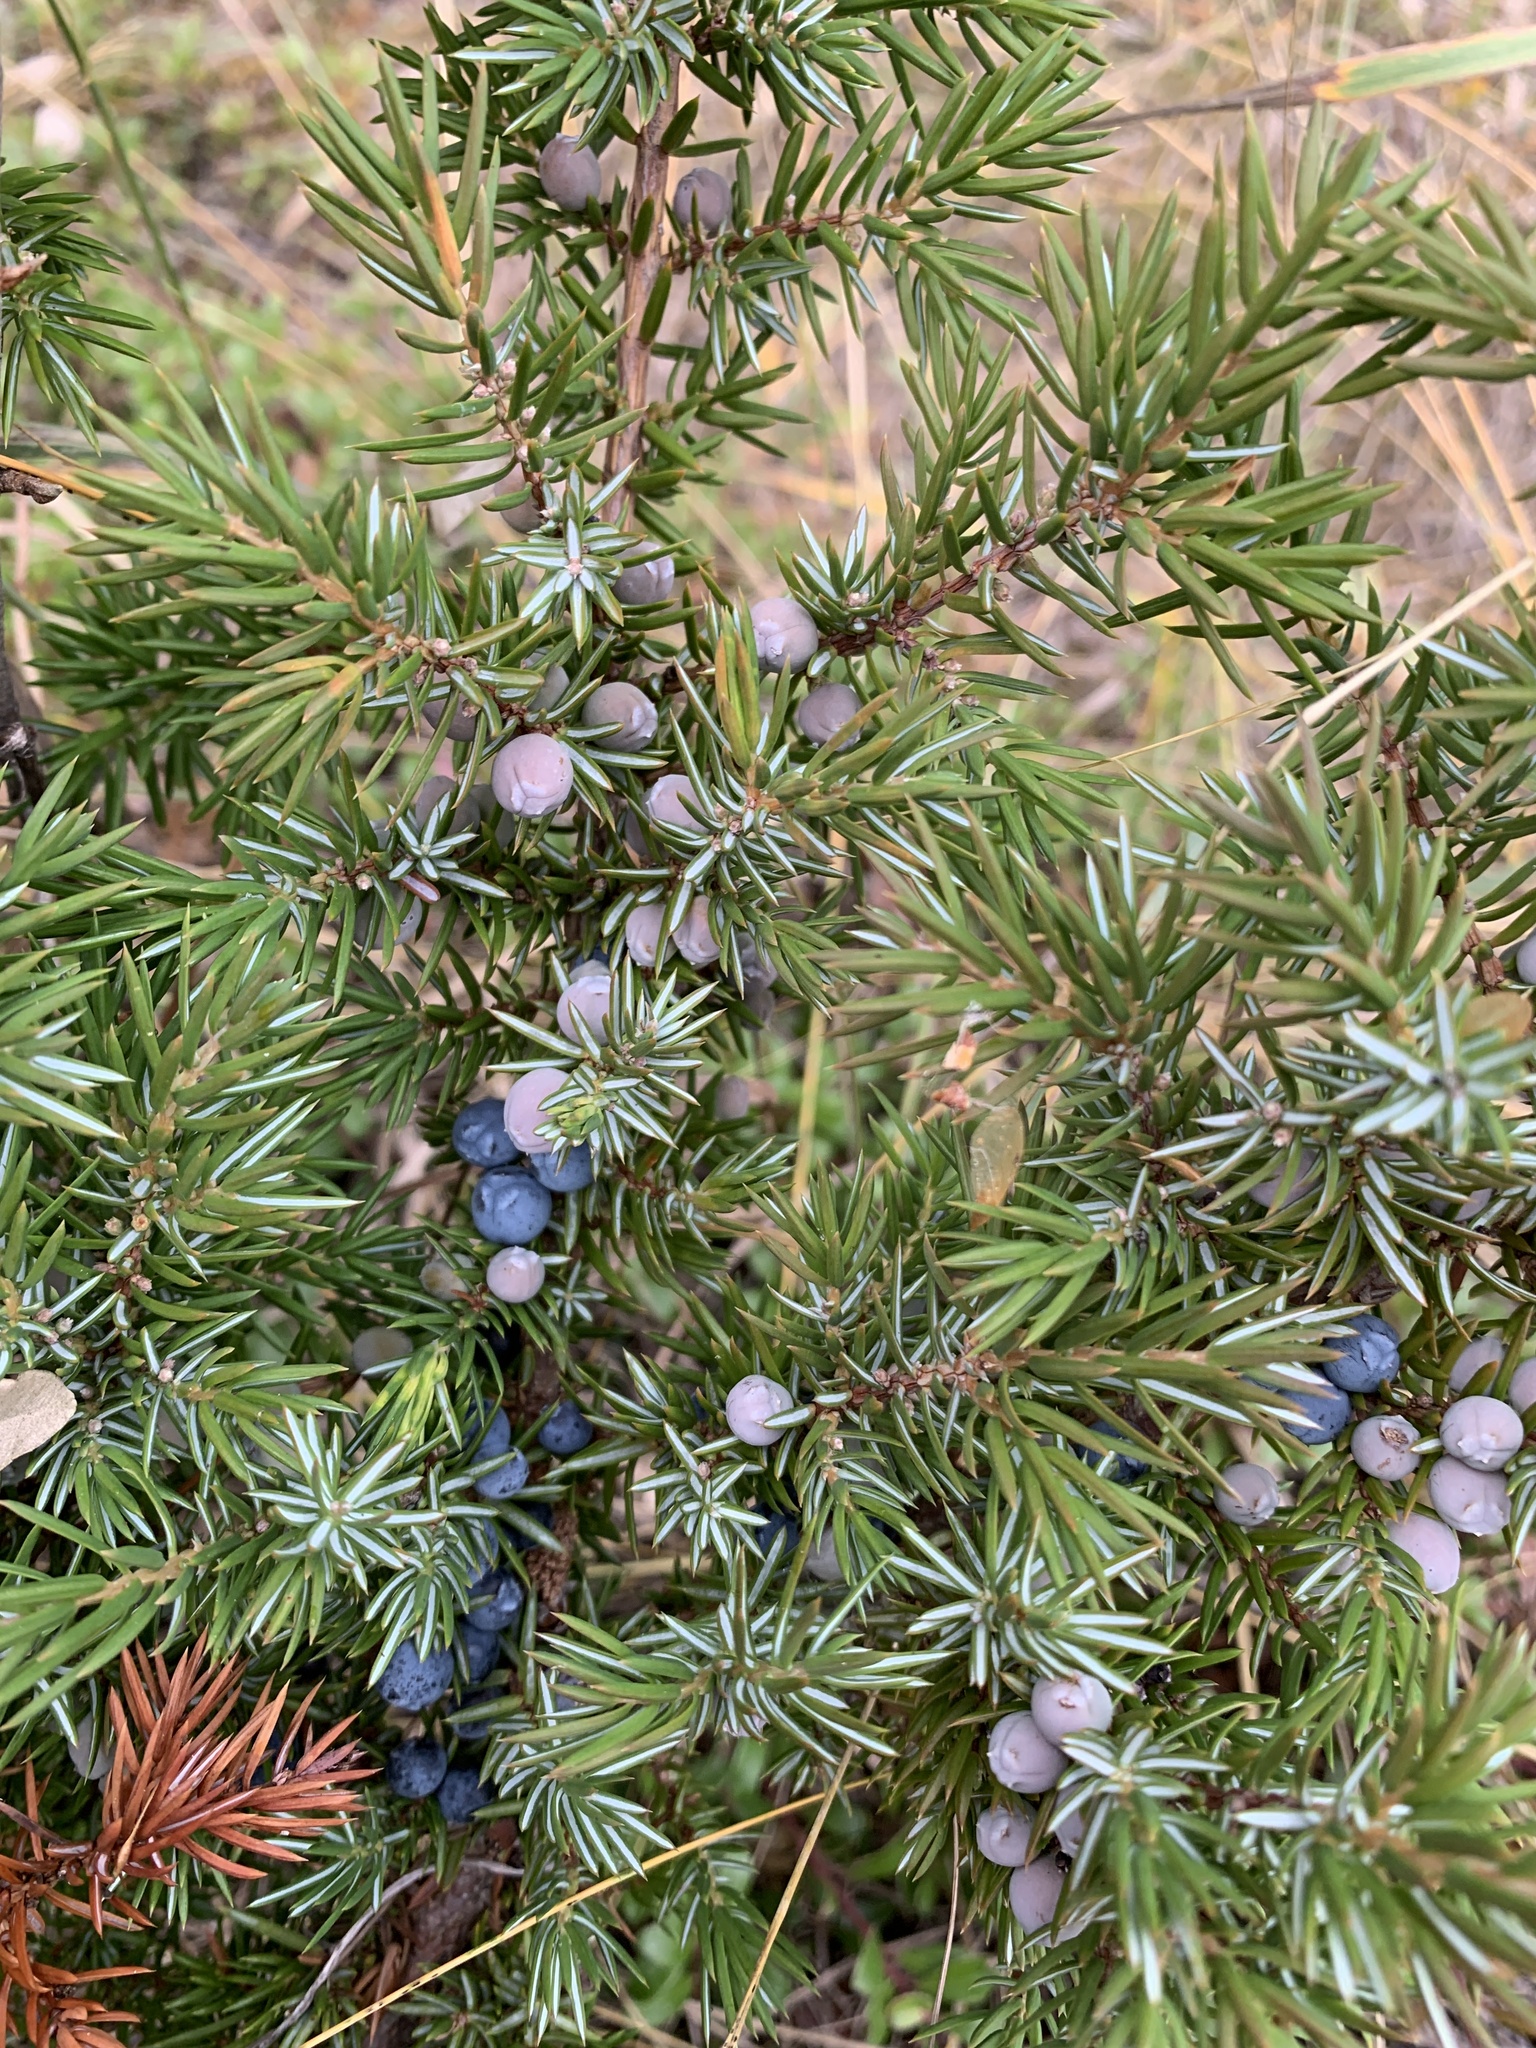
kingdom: Plantae
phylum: Tracheophyta
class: Pinopsida
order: Pinales
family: Cupressaceae
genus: Juniperus
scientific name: Juniperus communis
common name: Common juniper
